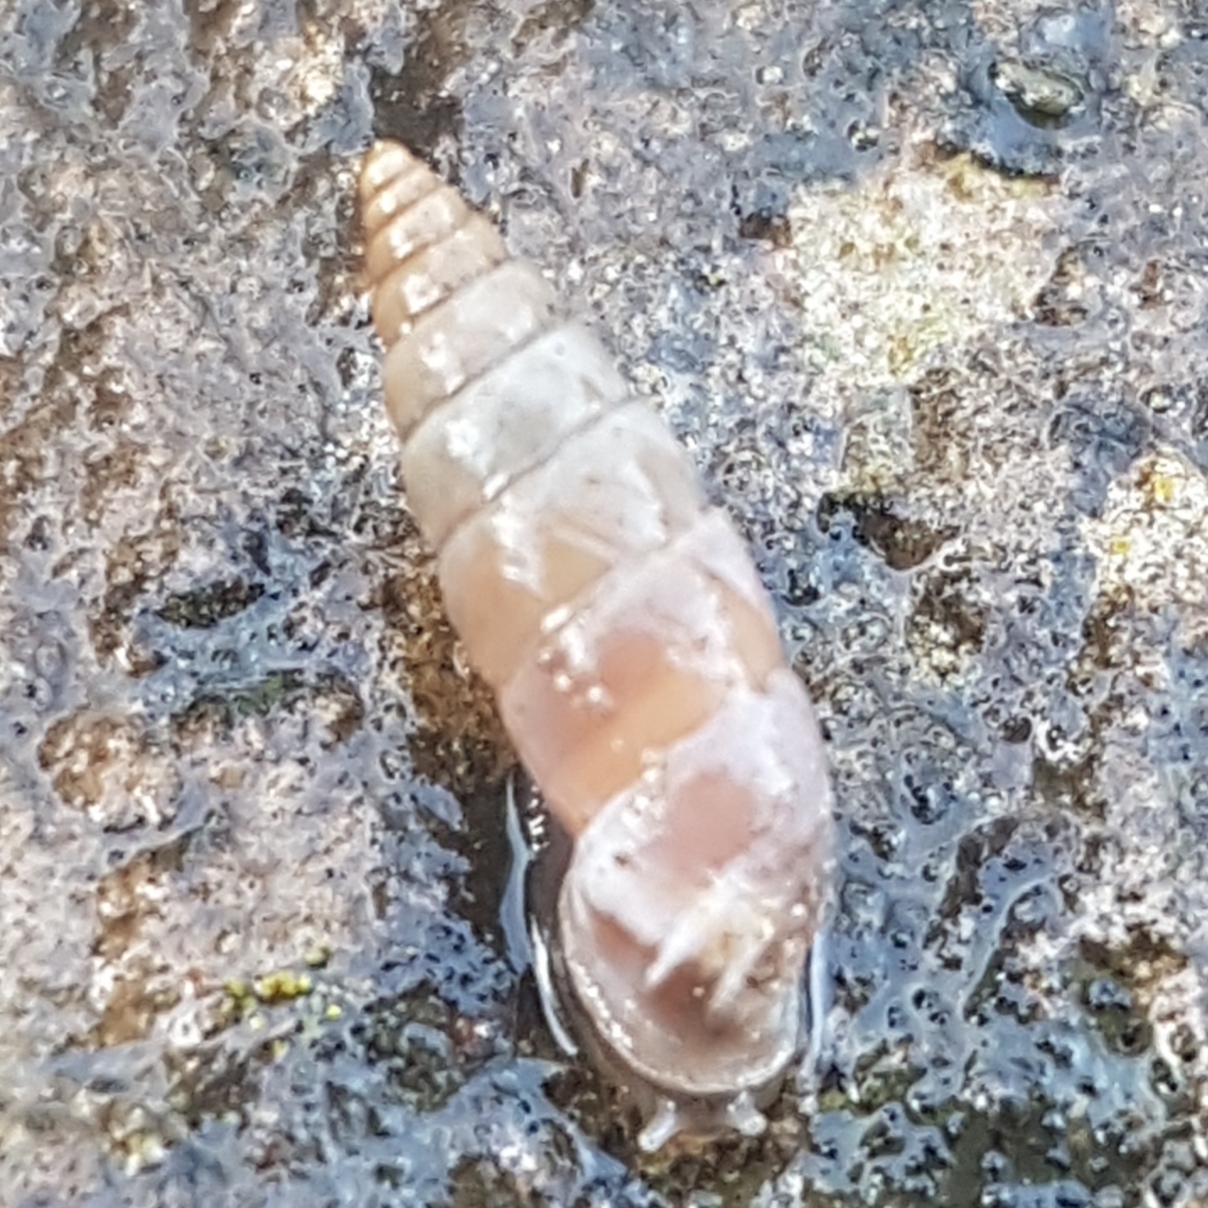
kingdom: Animalia
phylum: Mollusca
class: Gastropoda
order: Stylommatophora
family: Chondrinidae
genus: Solatopupa
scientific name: Solatopupa similis
